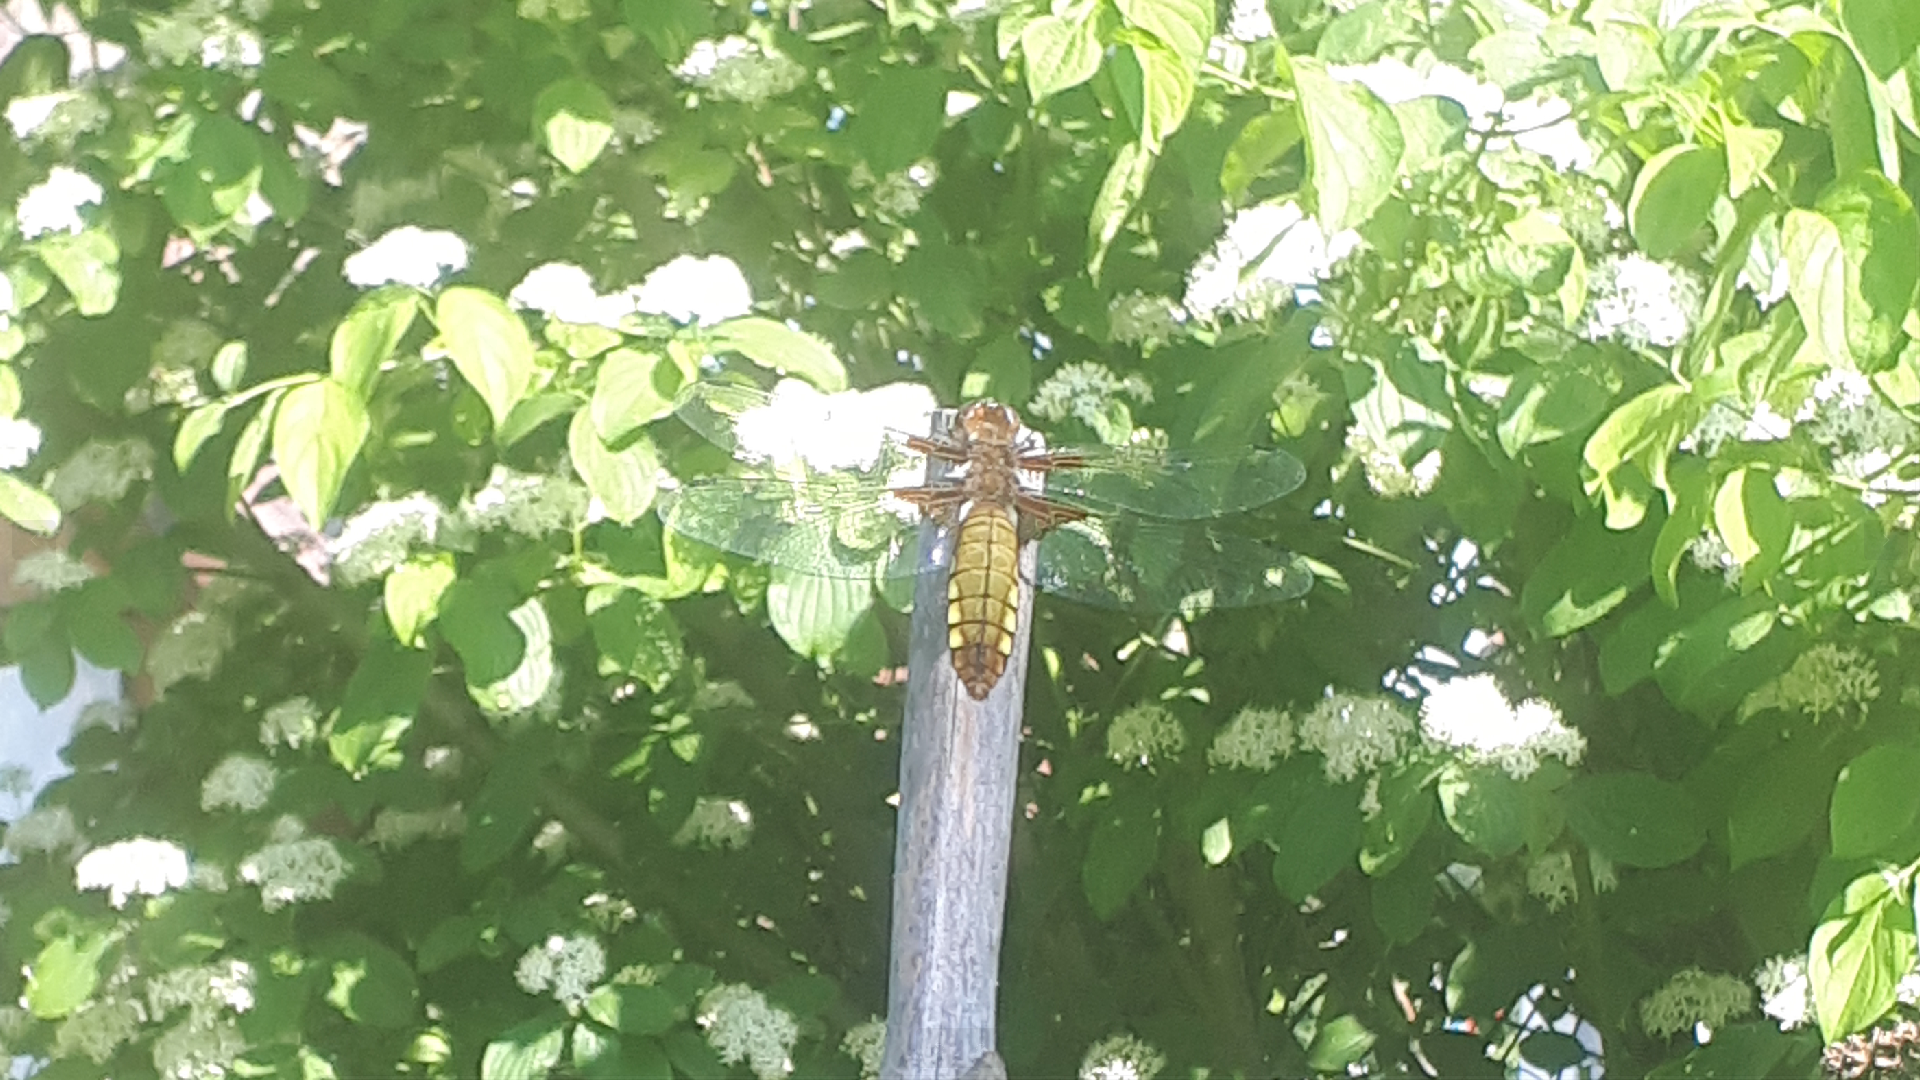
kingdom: Animalia
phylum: Arthropoda
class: Insecta
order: Odonata
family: Libellulidae
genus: Libellula
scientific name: Libellula depressa
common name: Broad-bodied chaser
